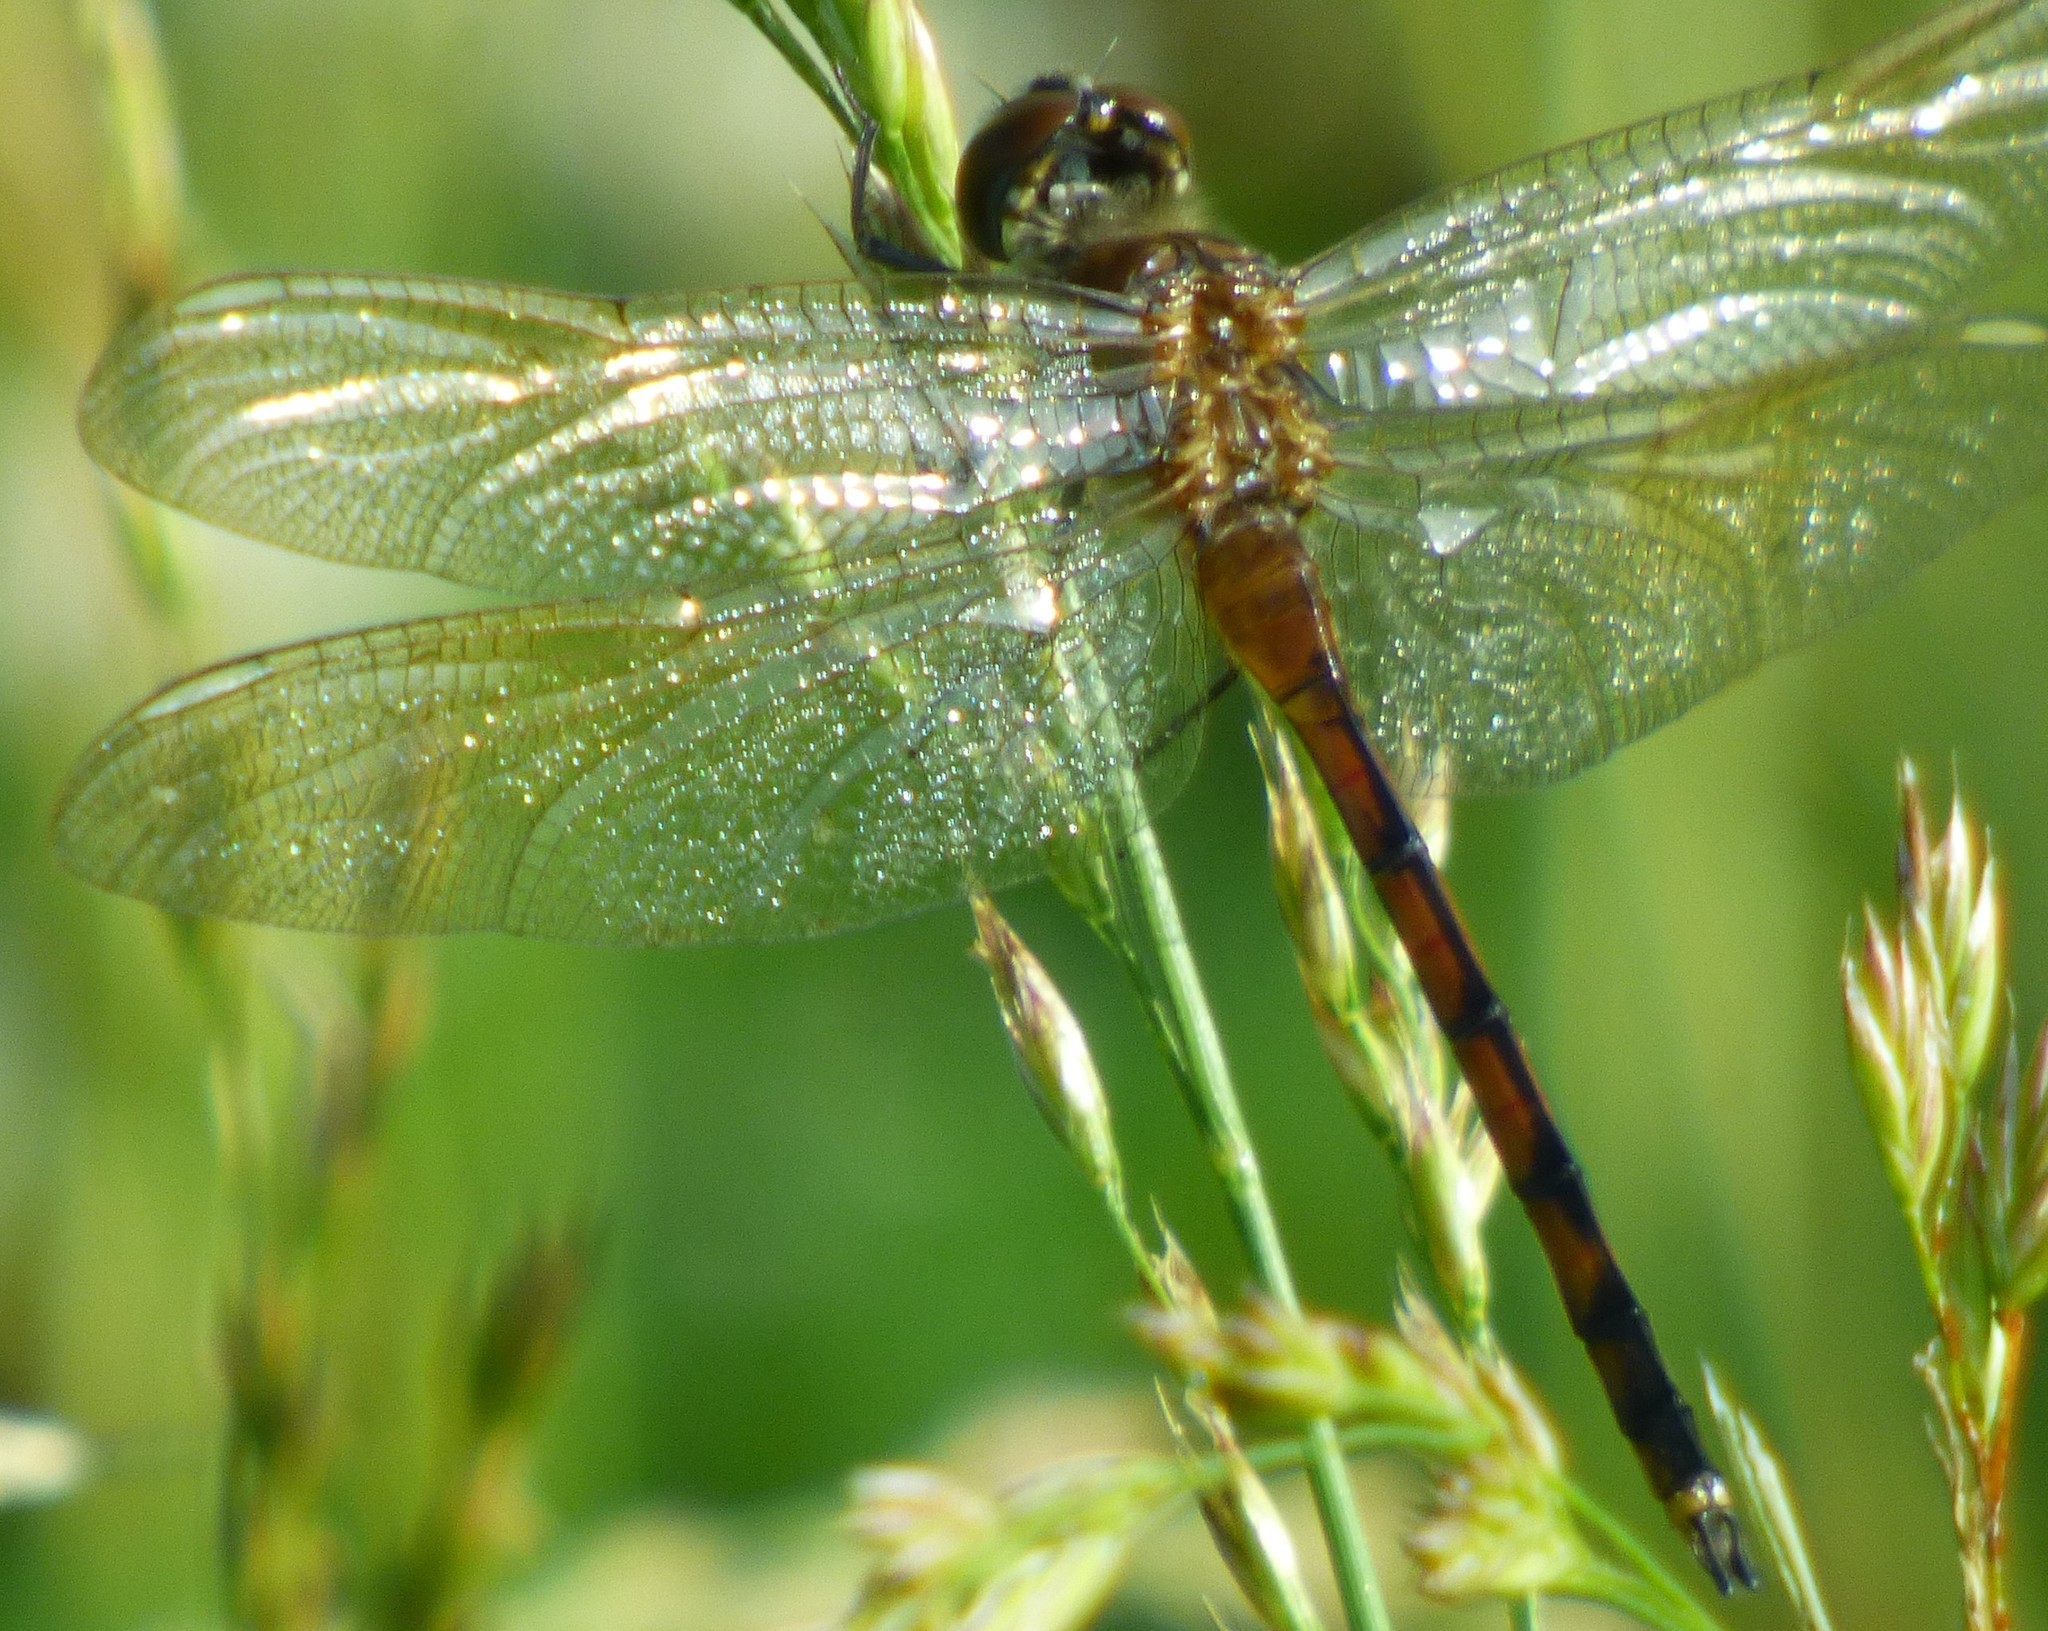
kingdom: Animalia
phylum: Arthropoda
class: Insecta
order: Odonata
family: Libellulidae
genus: Brachymesia
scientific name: Brachymesia gravida
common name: Four-spotted pennant
